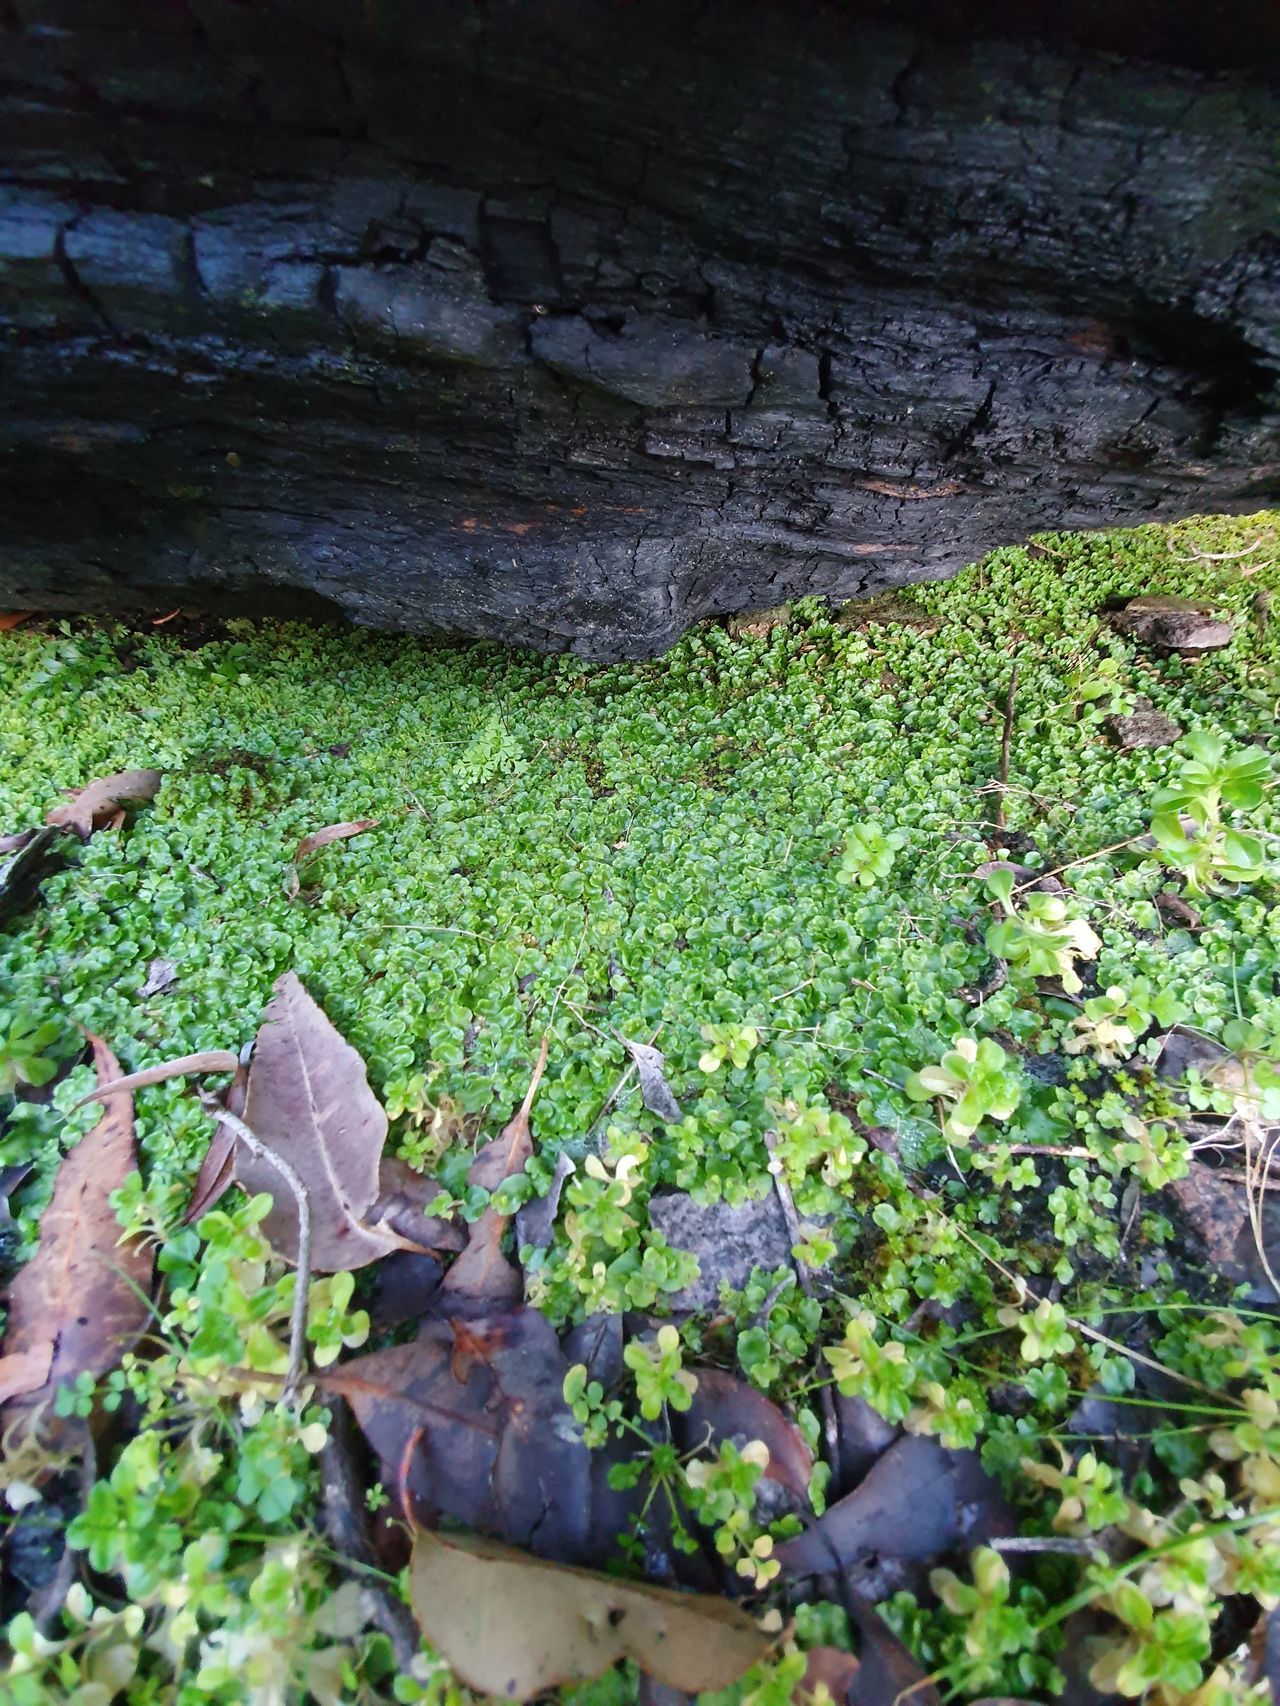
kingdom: Plantae
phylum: Marchantiophyta
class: Marchantiopsida
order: Lunulariales
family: Lunulariaceae
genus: Lunularia
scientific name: Lunularia cruciata
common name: Crescent-cup liverwort
